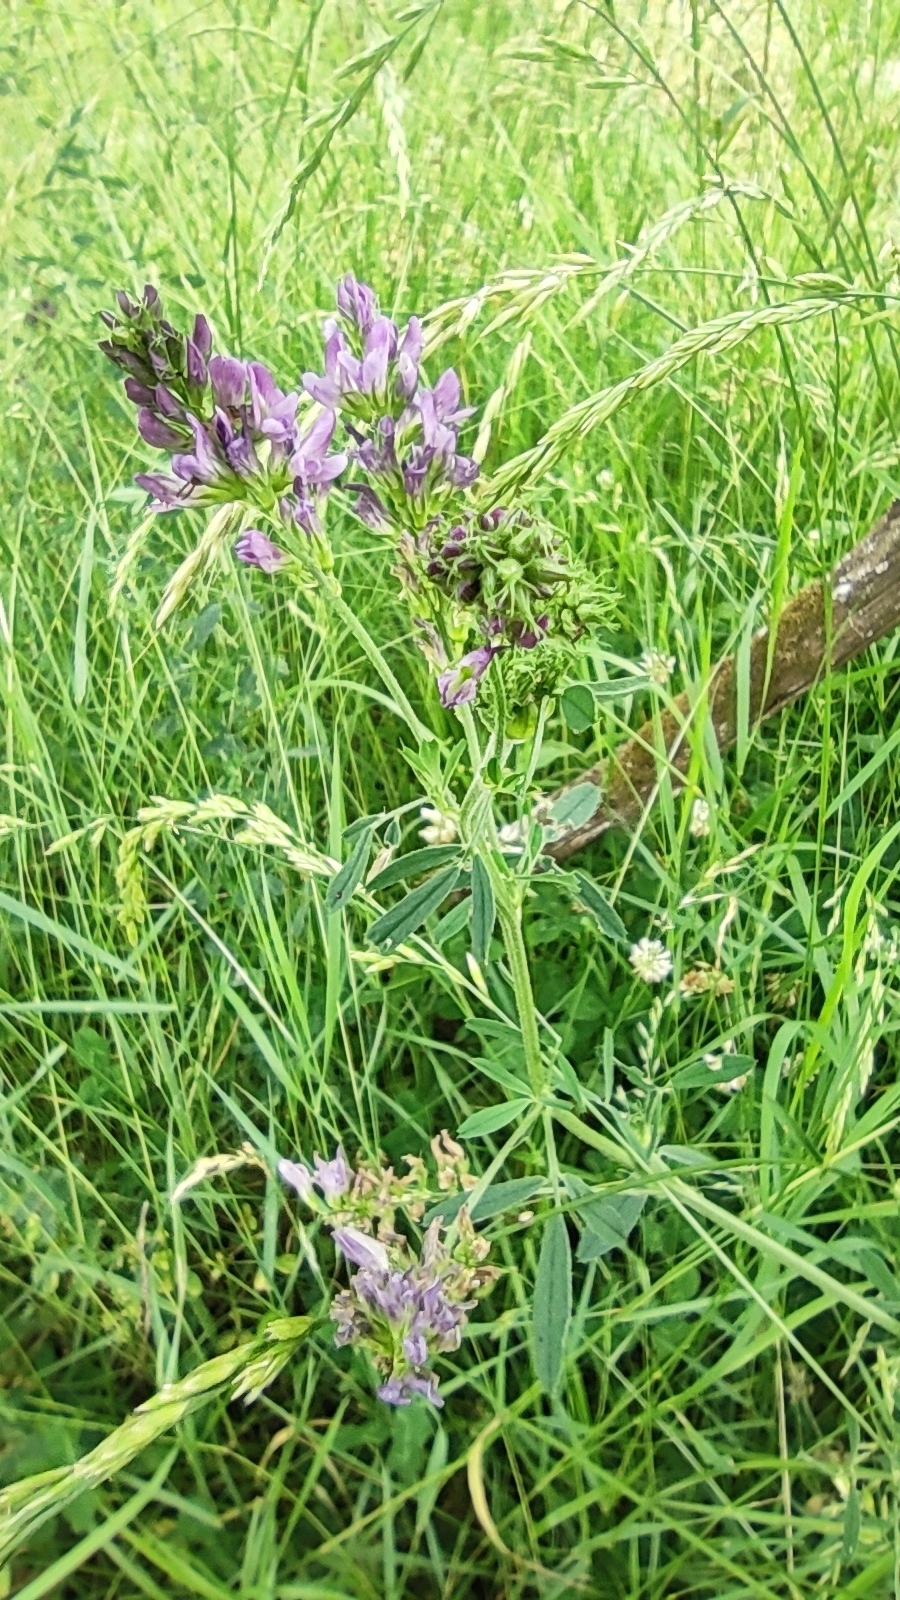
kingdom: Plantae
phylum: Tracheophyta
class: Magnoliopsida
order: Fabales
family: Fabaceae
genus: Medicago
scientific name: Medicago sativa
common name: Alfalfa
